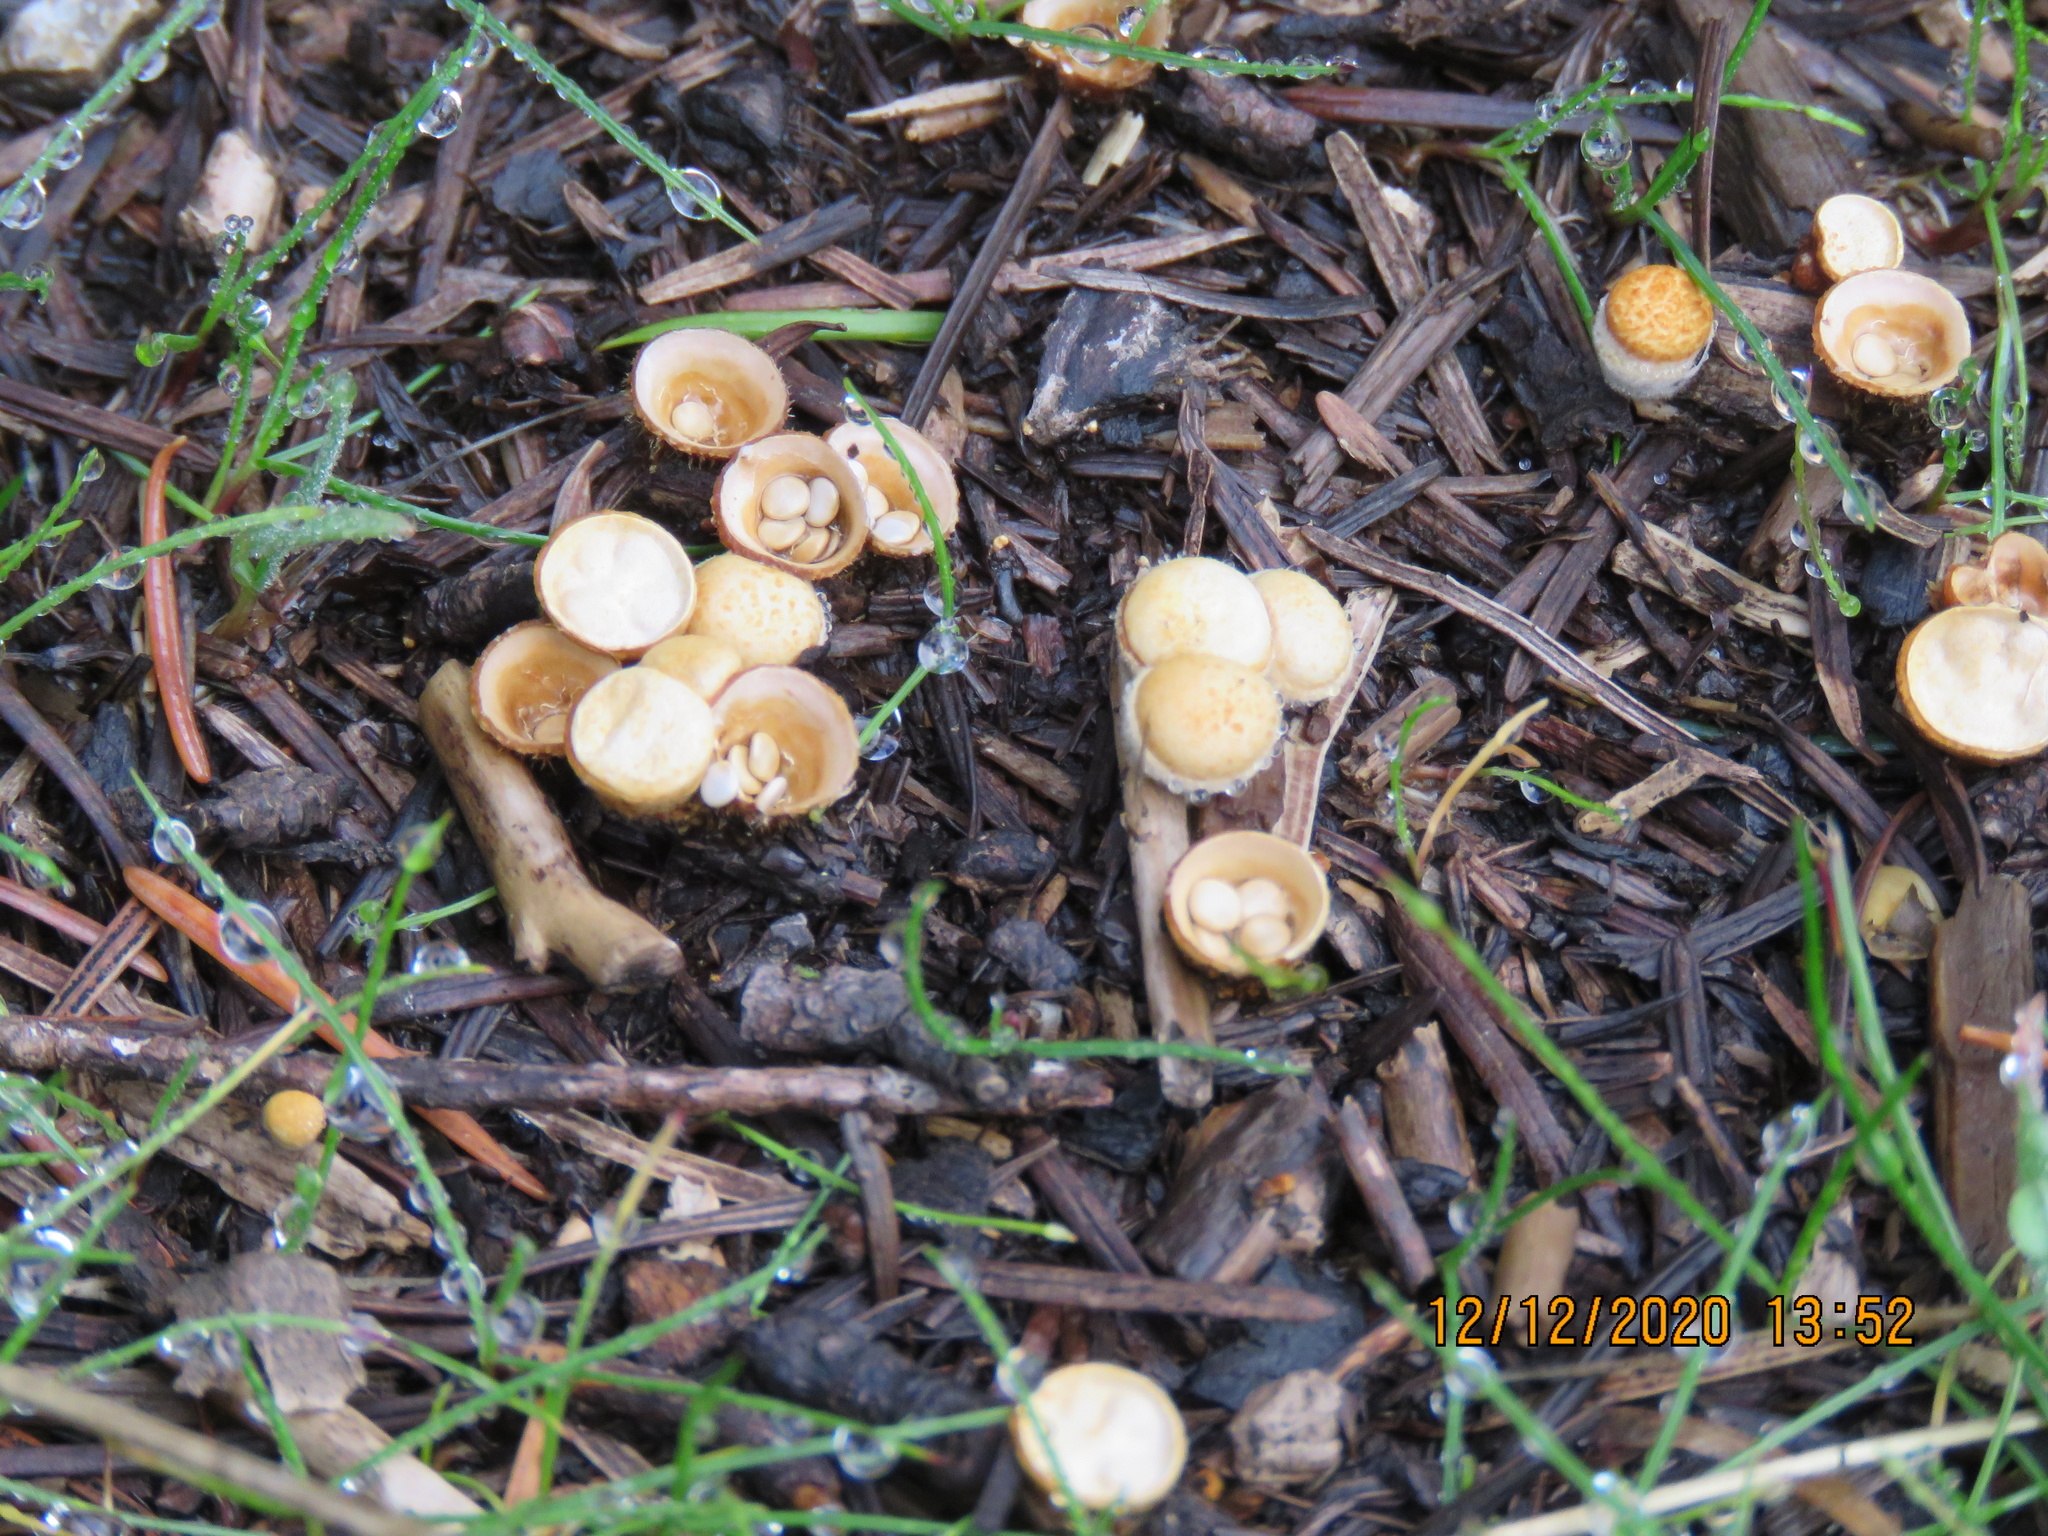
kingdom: Fungi
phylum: Basidiomycota
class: Agaricomycetes
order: Agaricales
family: Nidulariaceae
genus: Crucibulum
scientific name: Crucibulum laeve
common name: Common bird's nest
